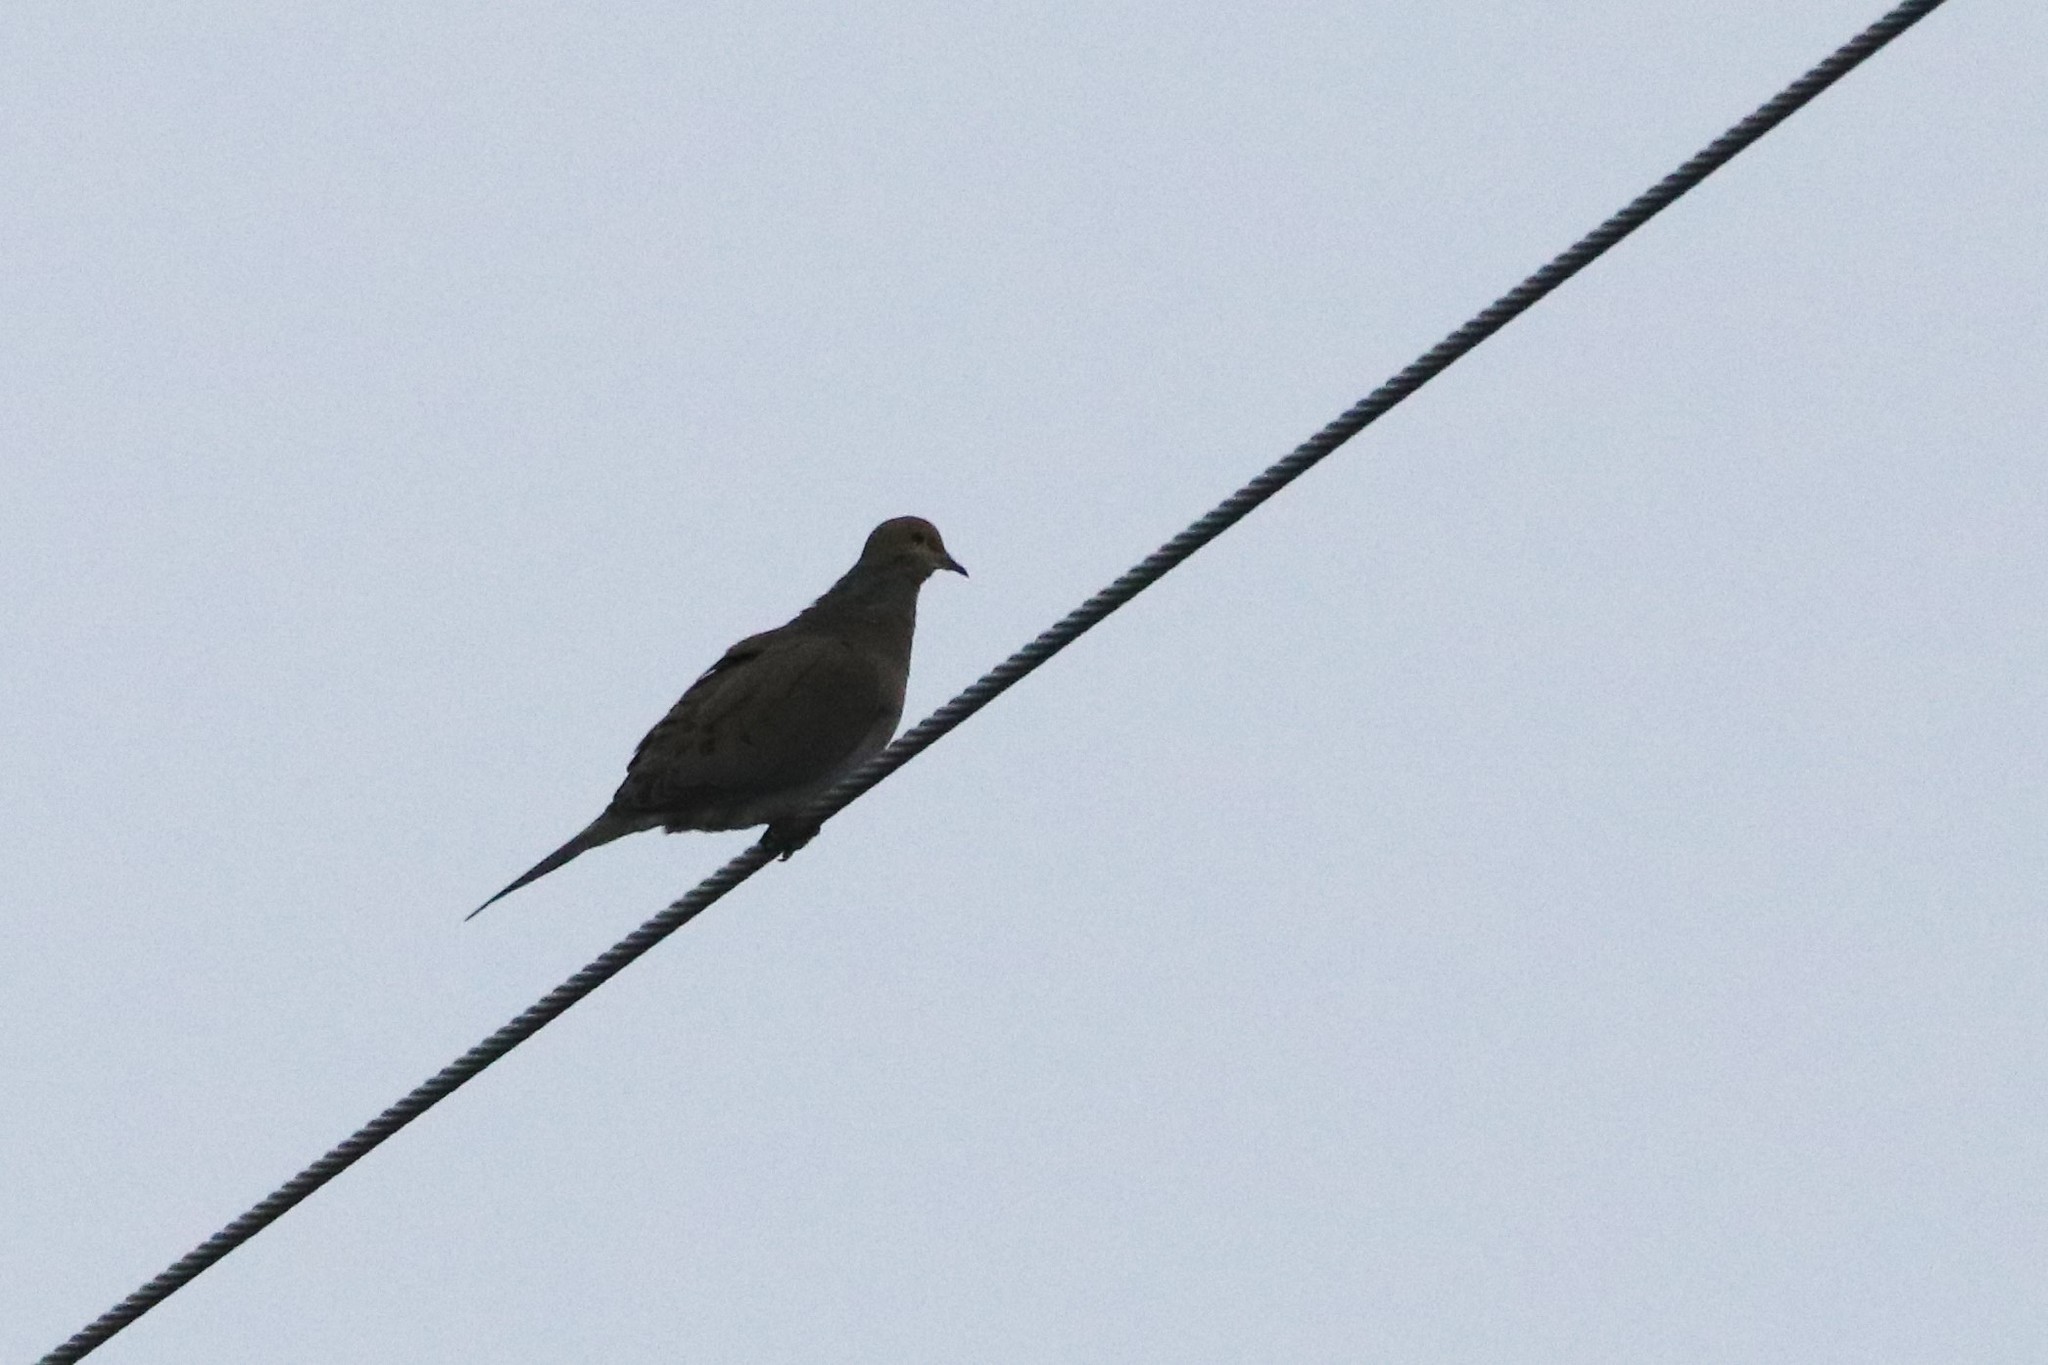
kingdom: Animalia
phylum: Chordata
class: Aves
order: Columbiformes
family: Columbidae
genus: Zenaida
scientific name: Zenaida macroura
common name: Mourning dove
